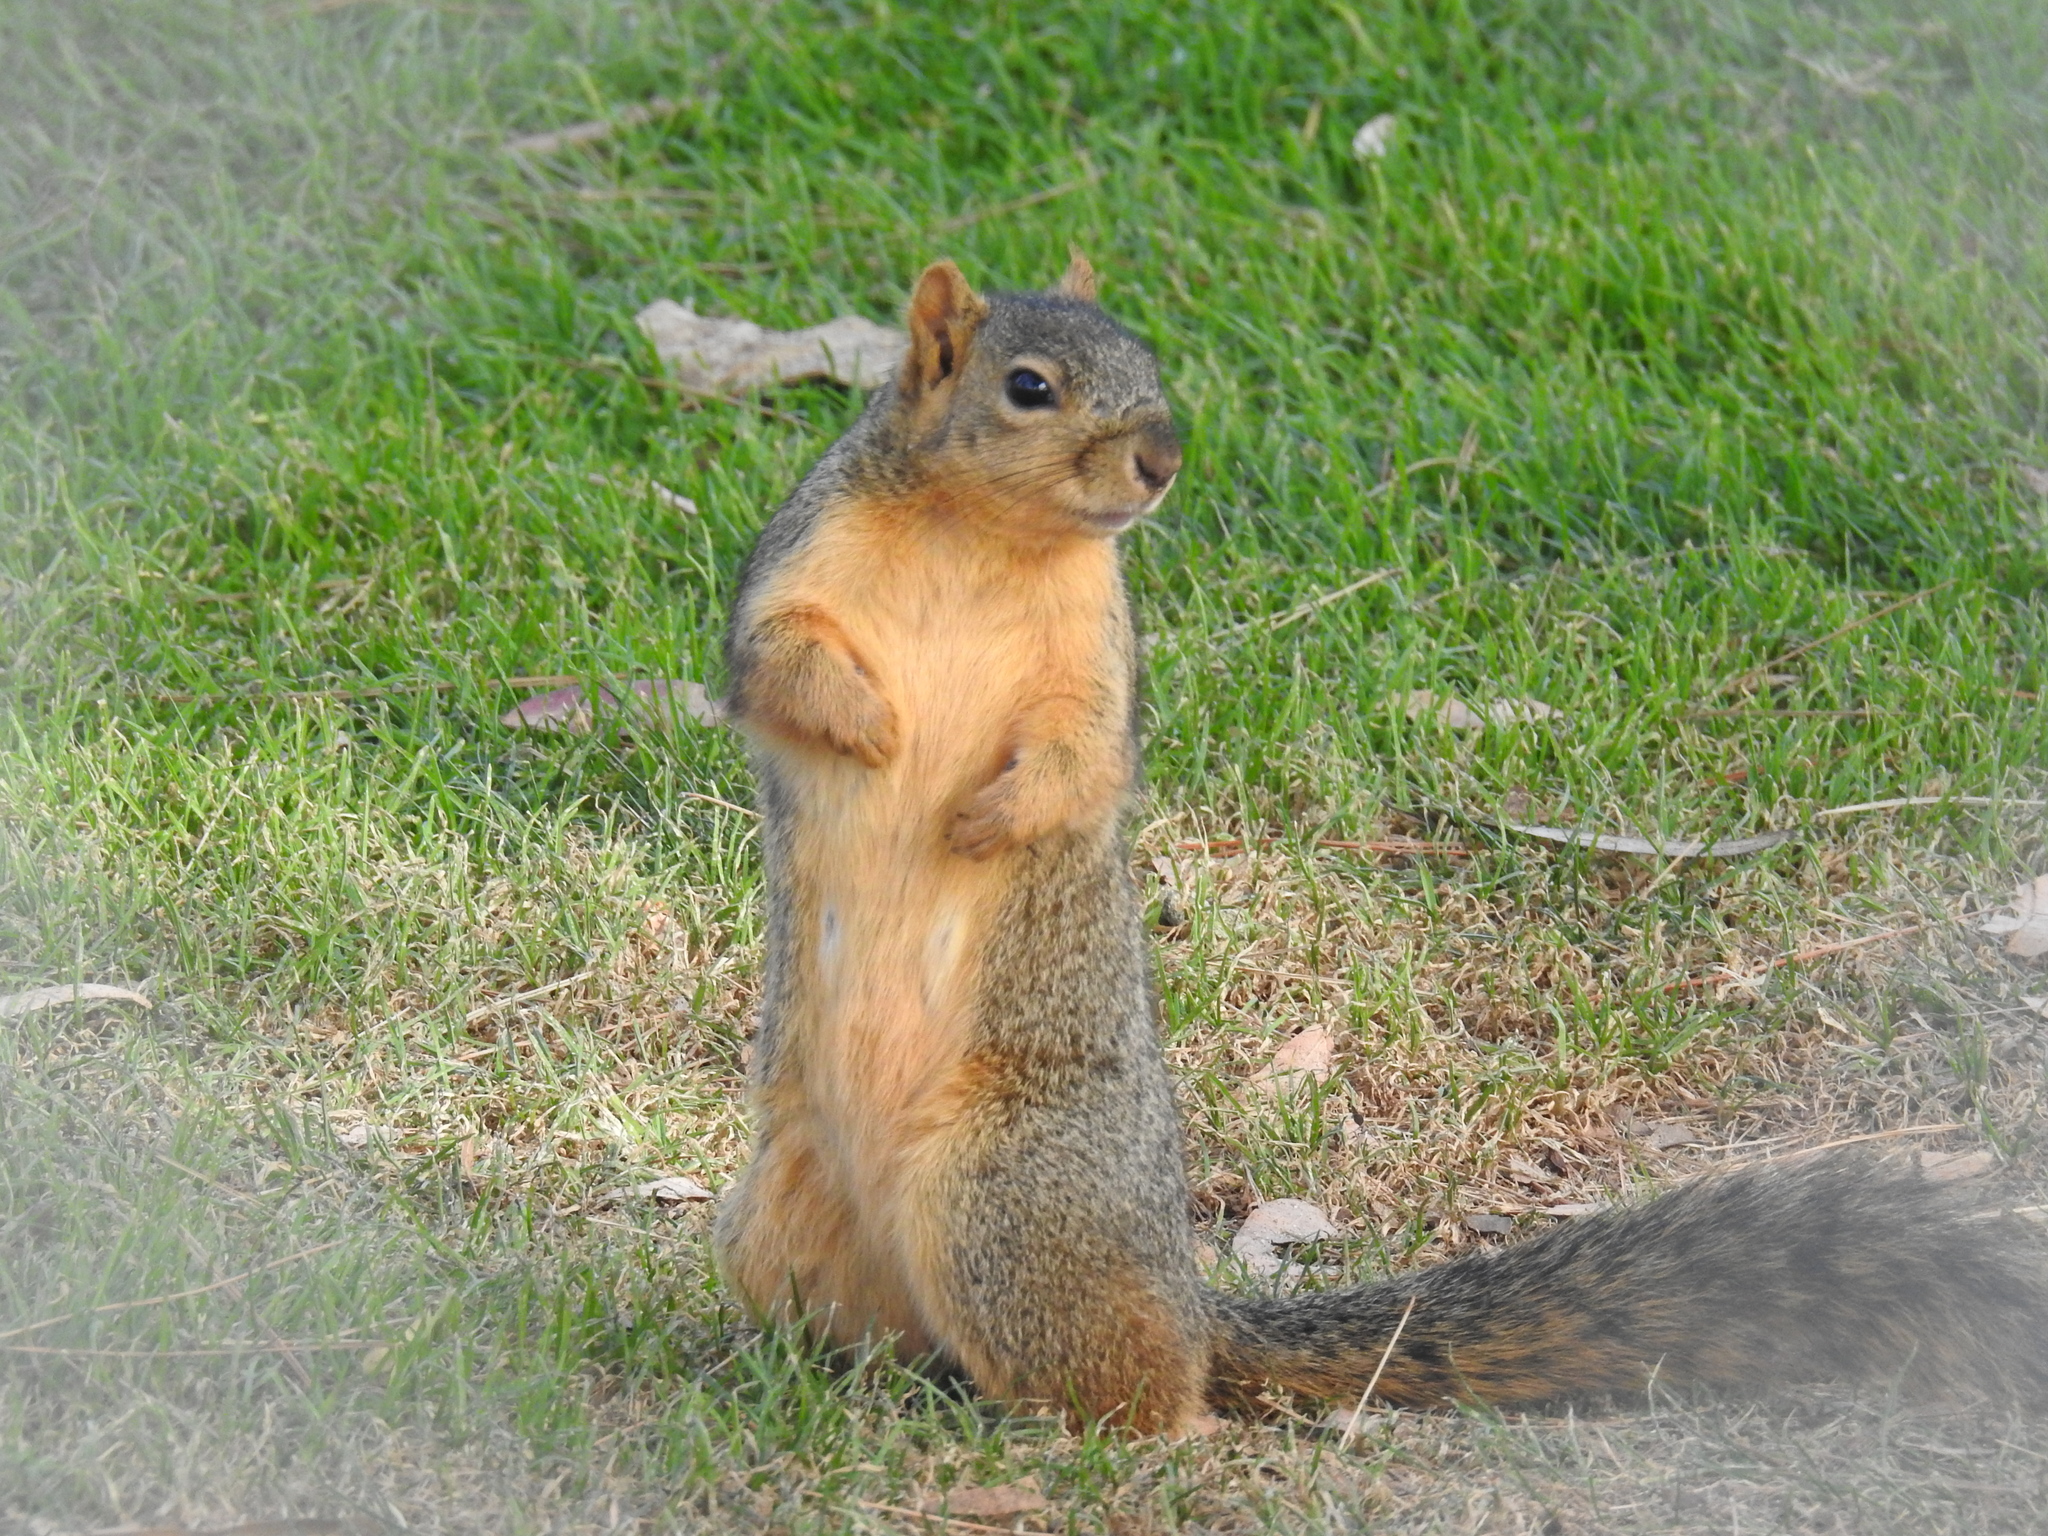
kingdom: Animalia
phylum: Chordata
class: Mammalia
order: Rodentia
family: Sciuridae
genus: Sciurus
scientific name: Sciurus niger
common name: Fox squirrel
